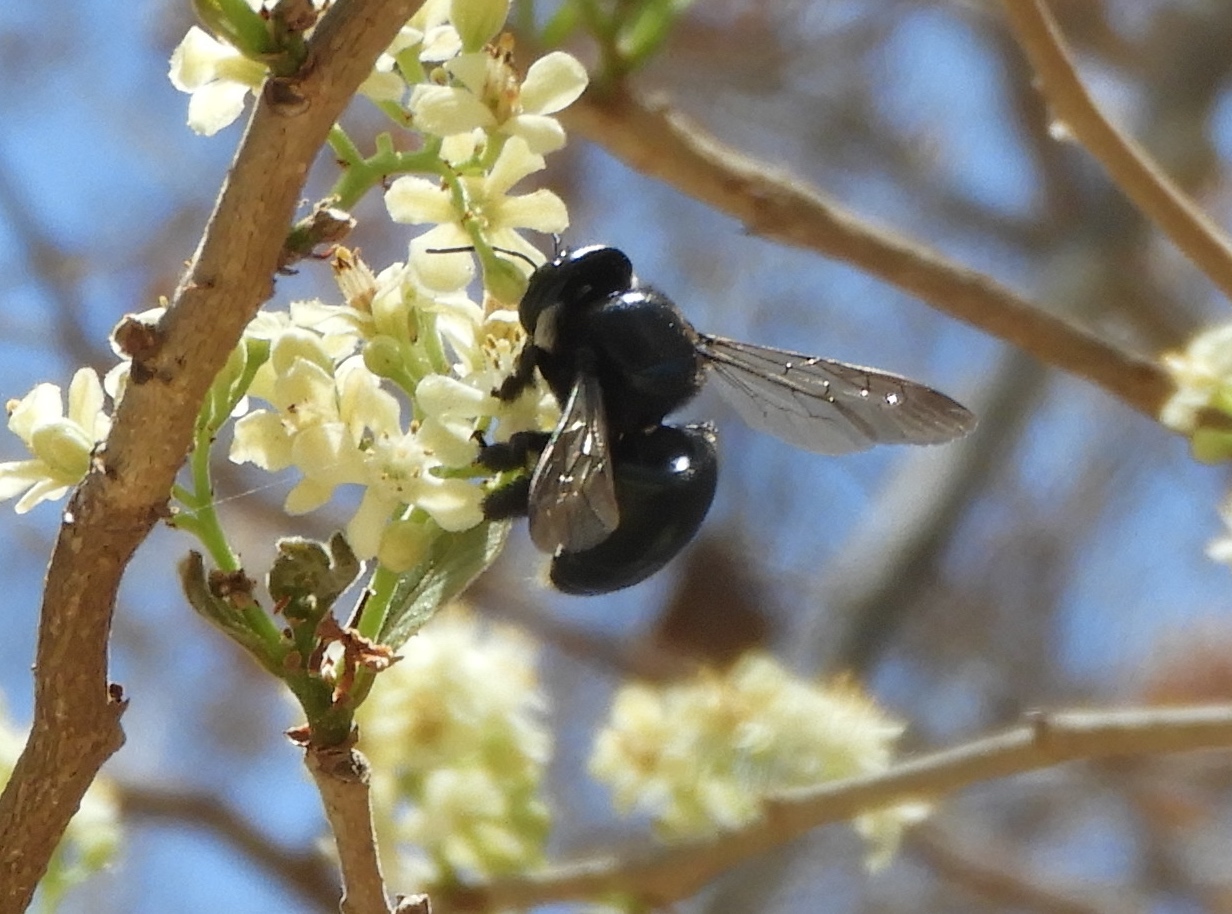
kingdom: Animalia
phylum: Arthropoda
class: Insecta
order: Hymenoptera
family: Apidae
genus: Xylocopa
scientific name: Xylocopa muscaria
